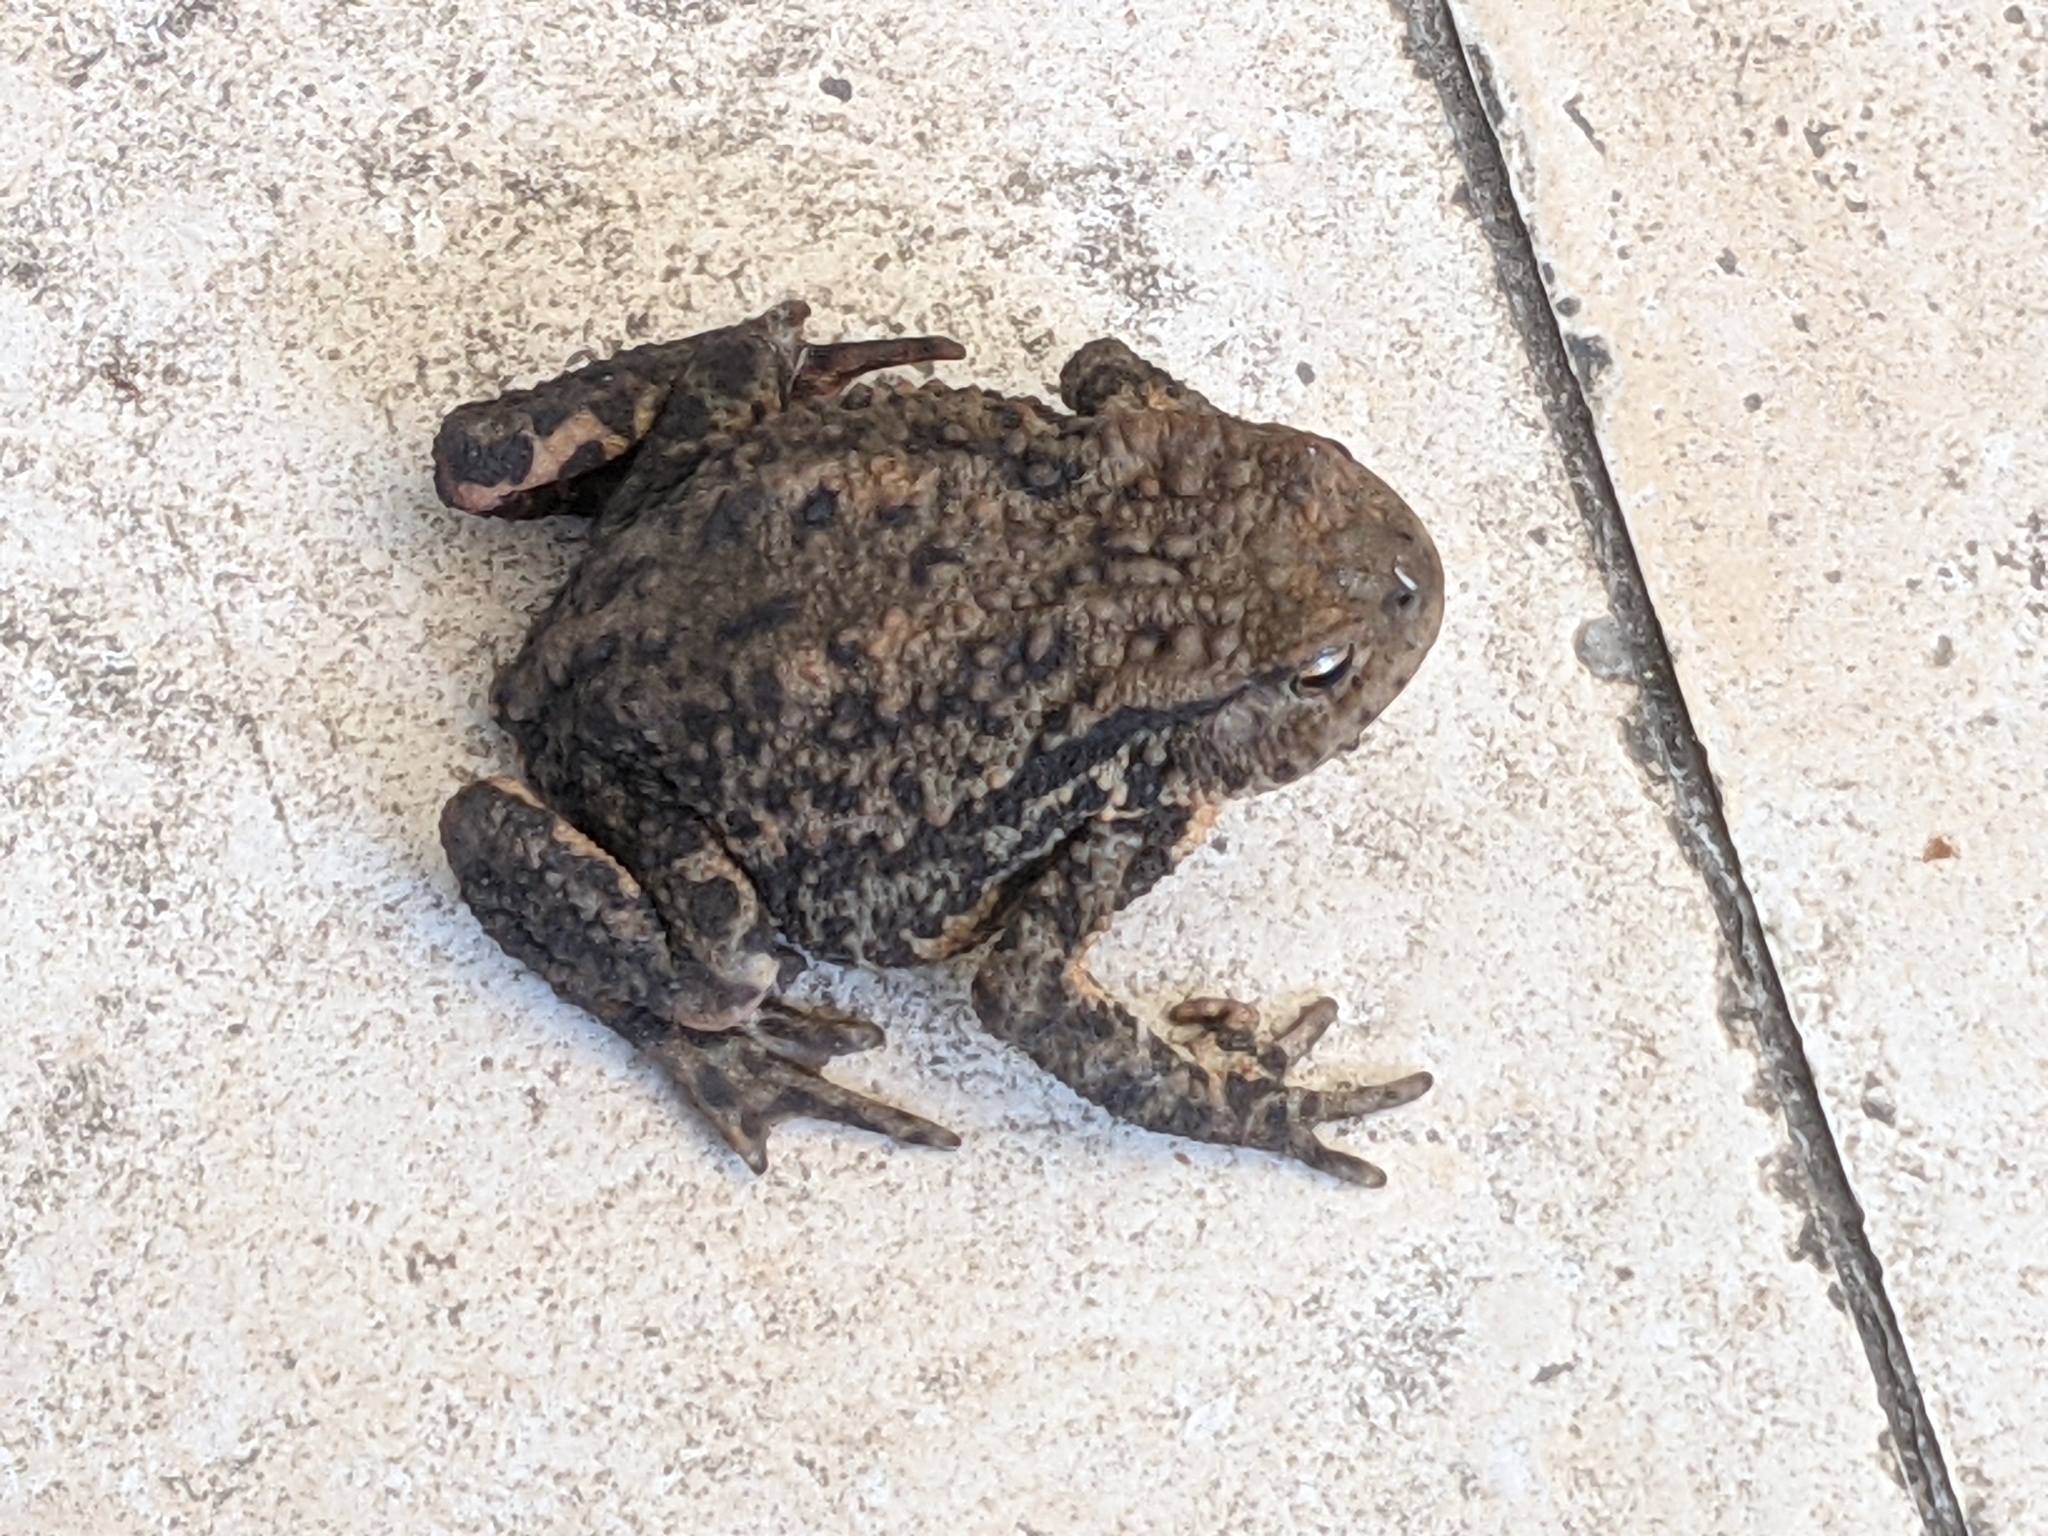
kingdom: Animalia
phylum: Chordata
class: Amphibia
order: Anura
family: Bufonidae
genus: Bufo
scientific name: Bufo bufo
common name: Common toad
